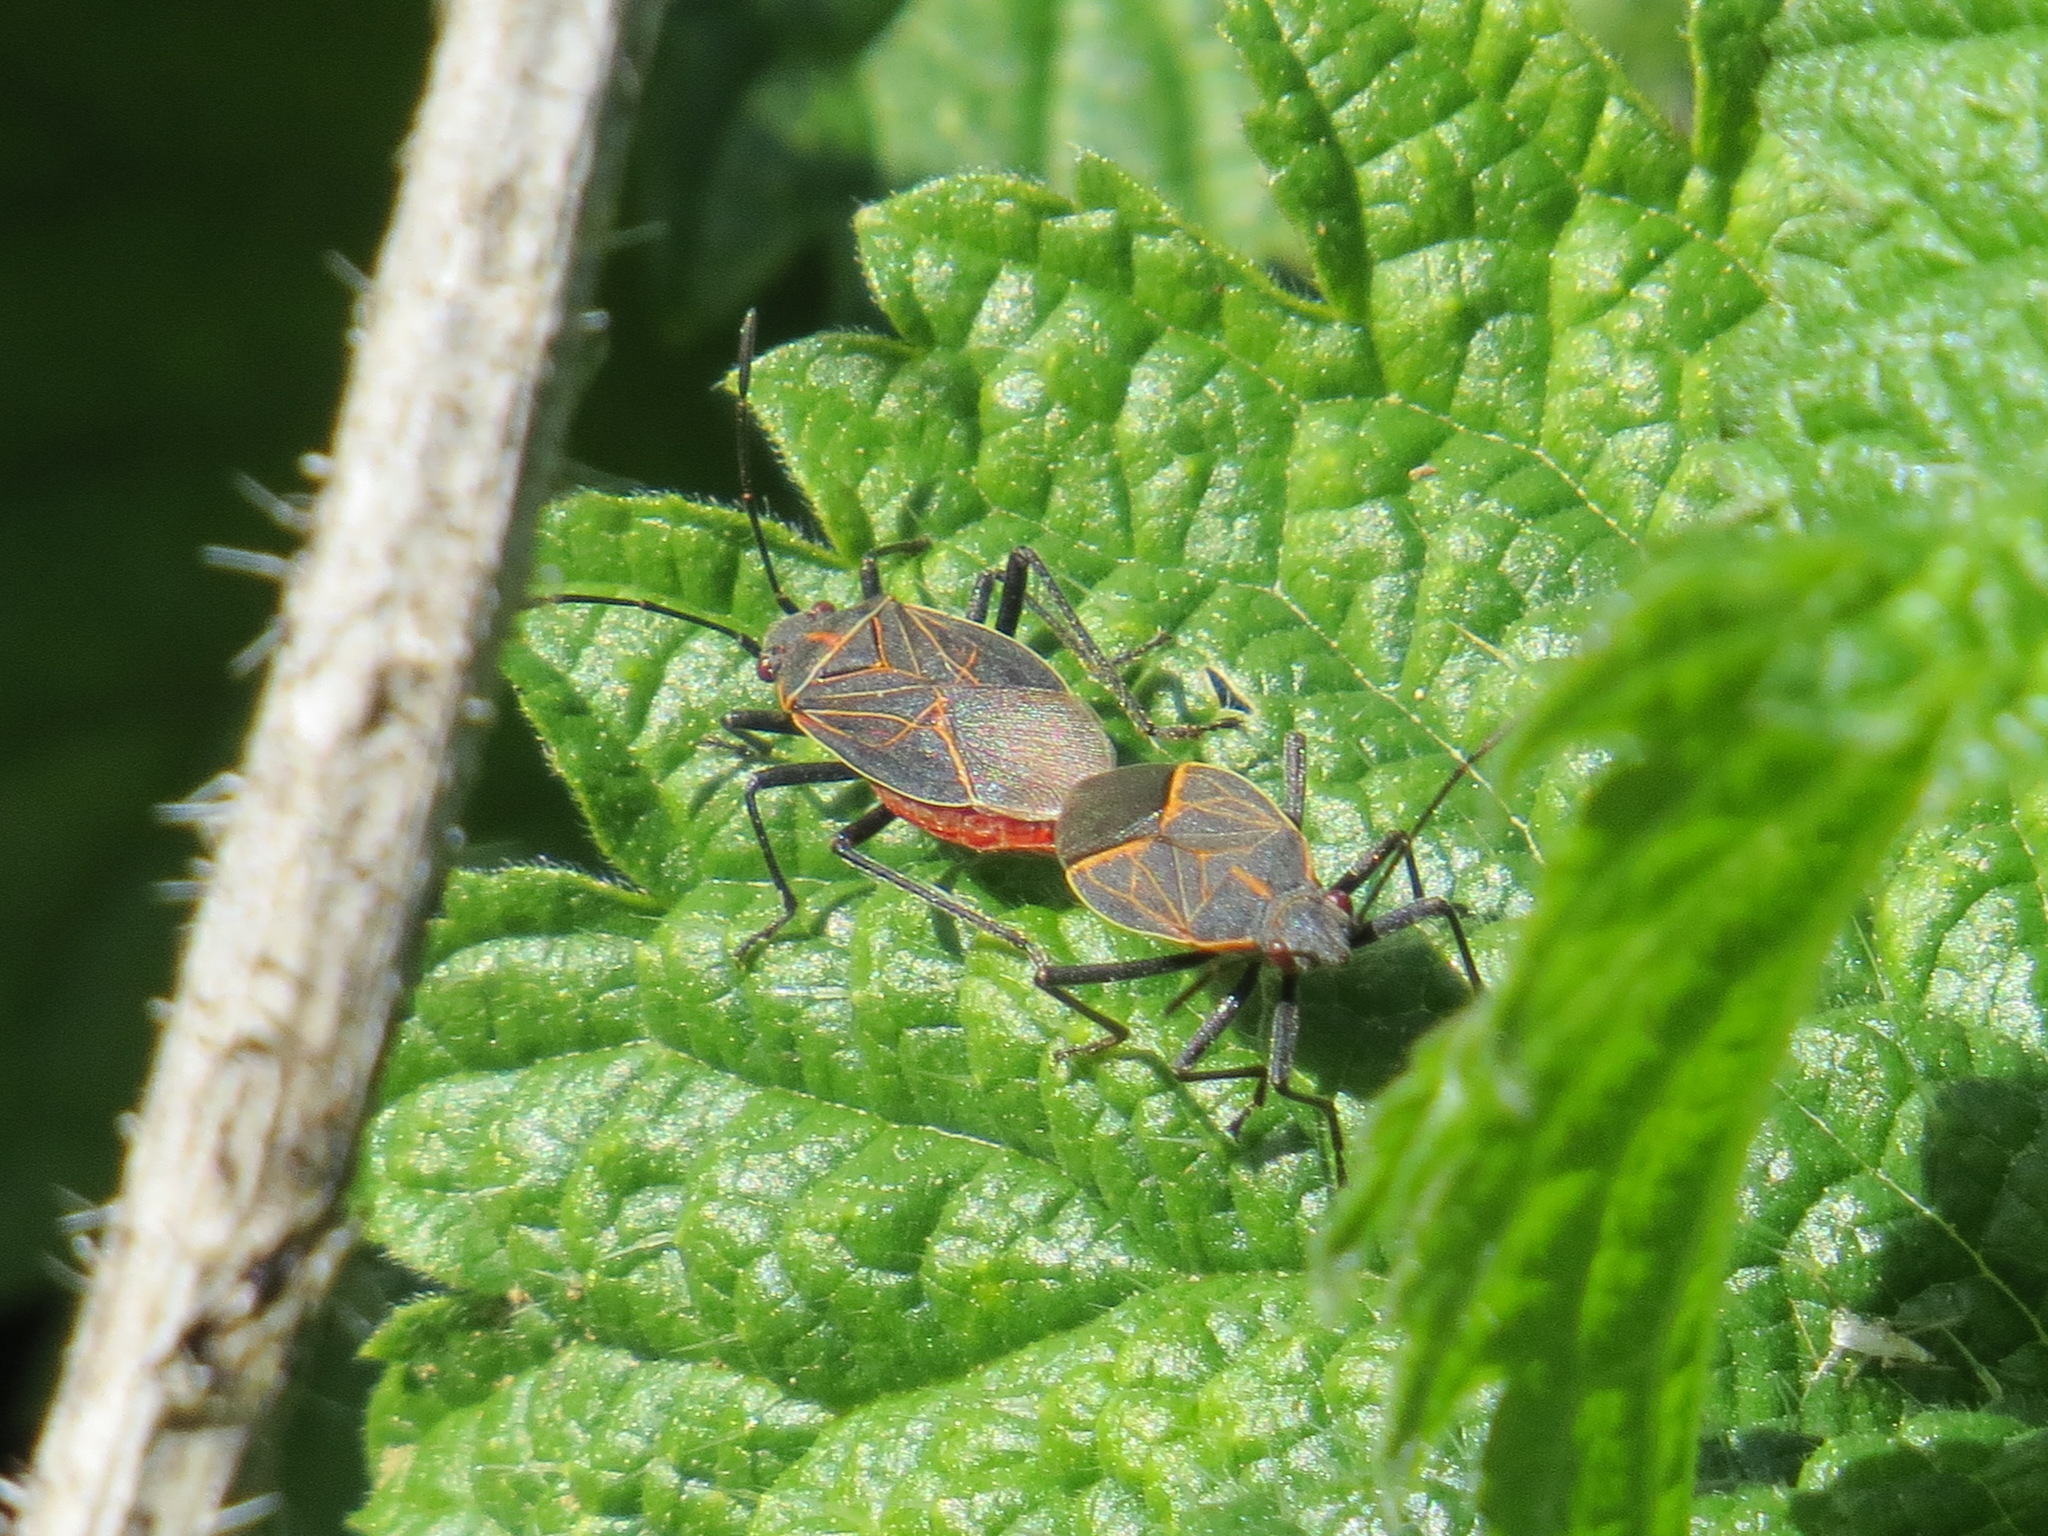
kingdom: Animalia
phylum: Arthropoda
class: Insecta
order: Hemiptera
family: Rhopalidae
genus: Boisea
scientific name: Boisea rubrolineata
